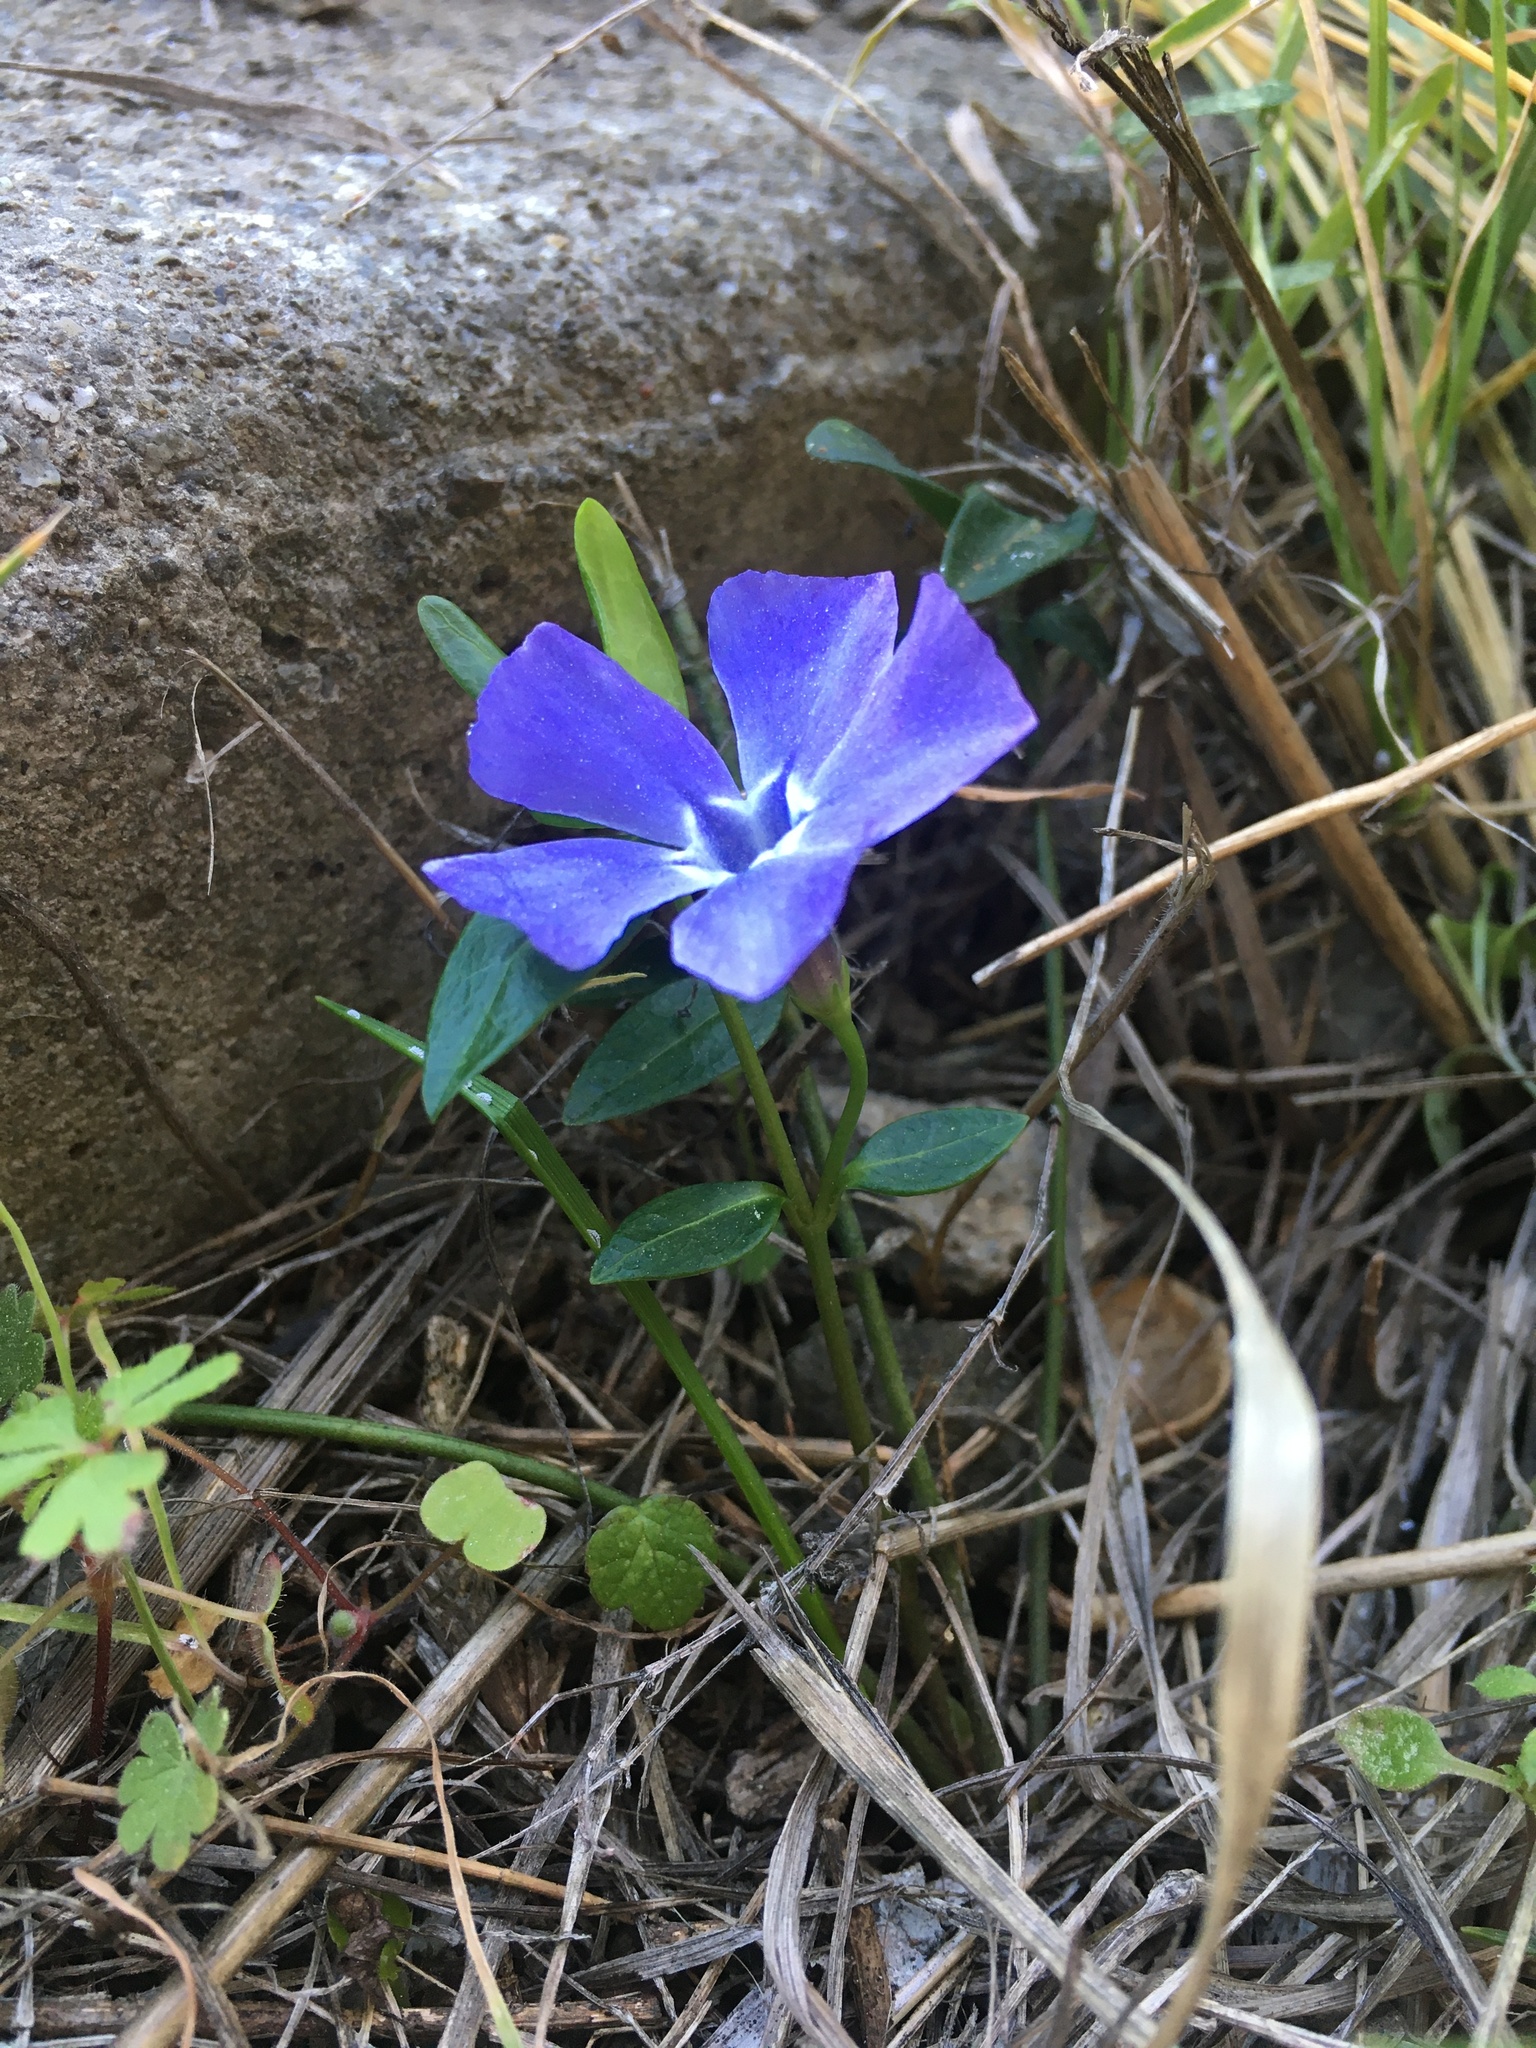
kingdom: Plantae
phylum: Tracheophyta
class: Magnoliopsida
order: Gentianales
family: Apocynaceae
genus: Vinca
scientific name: Vinca minor
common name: Lesser periwinkle
